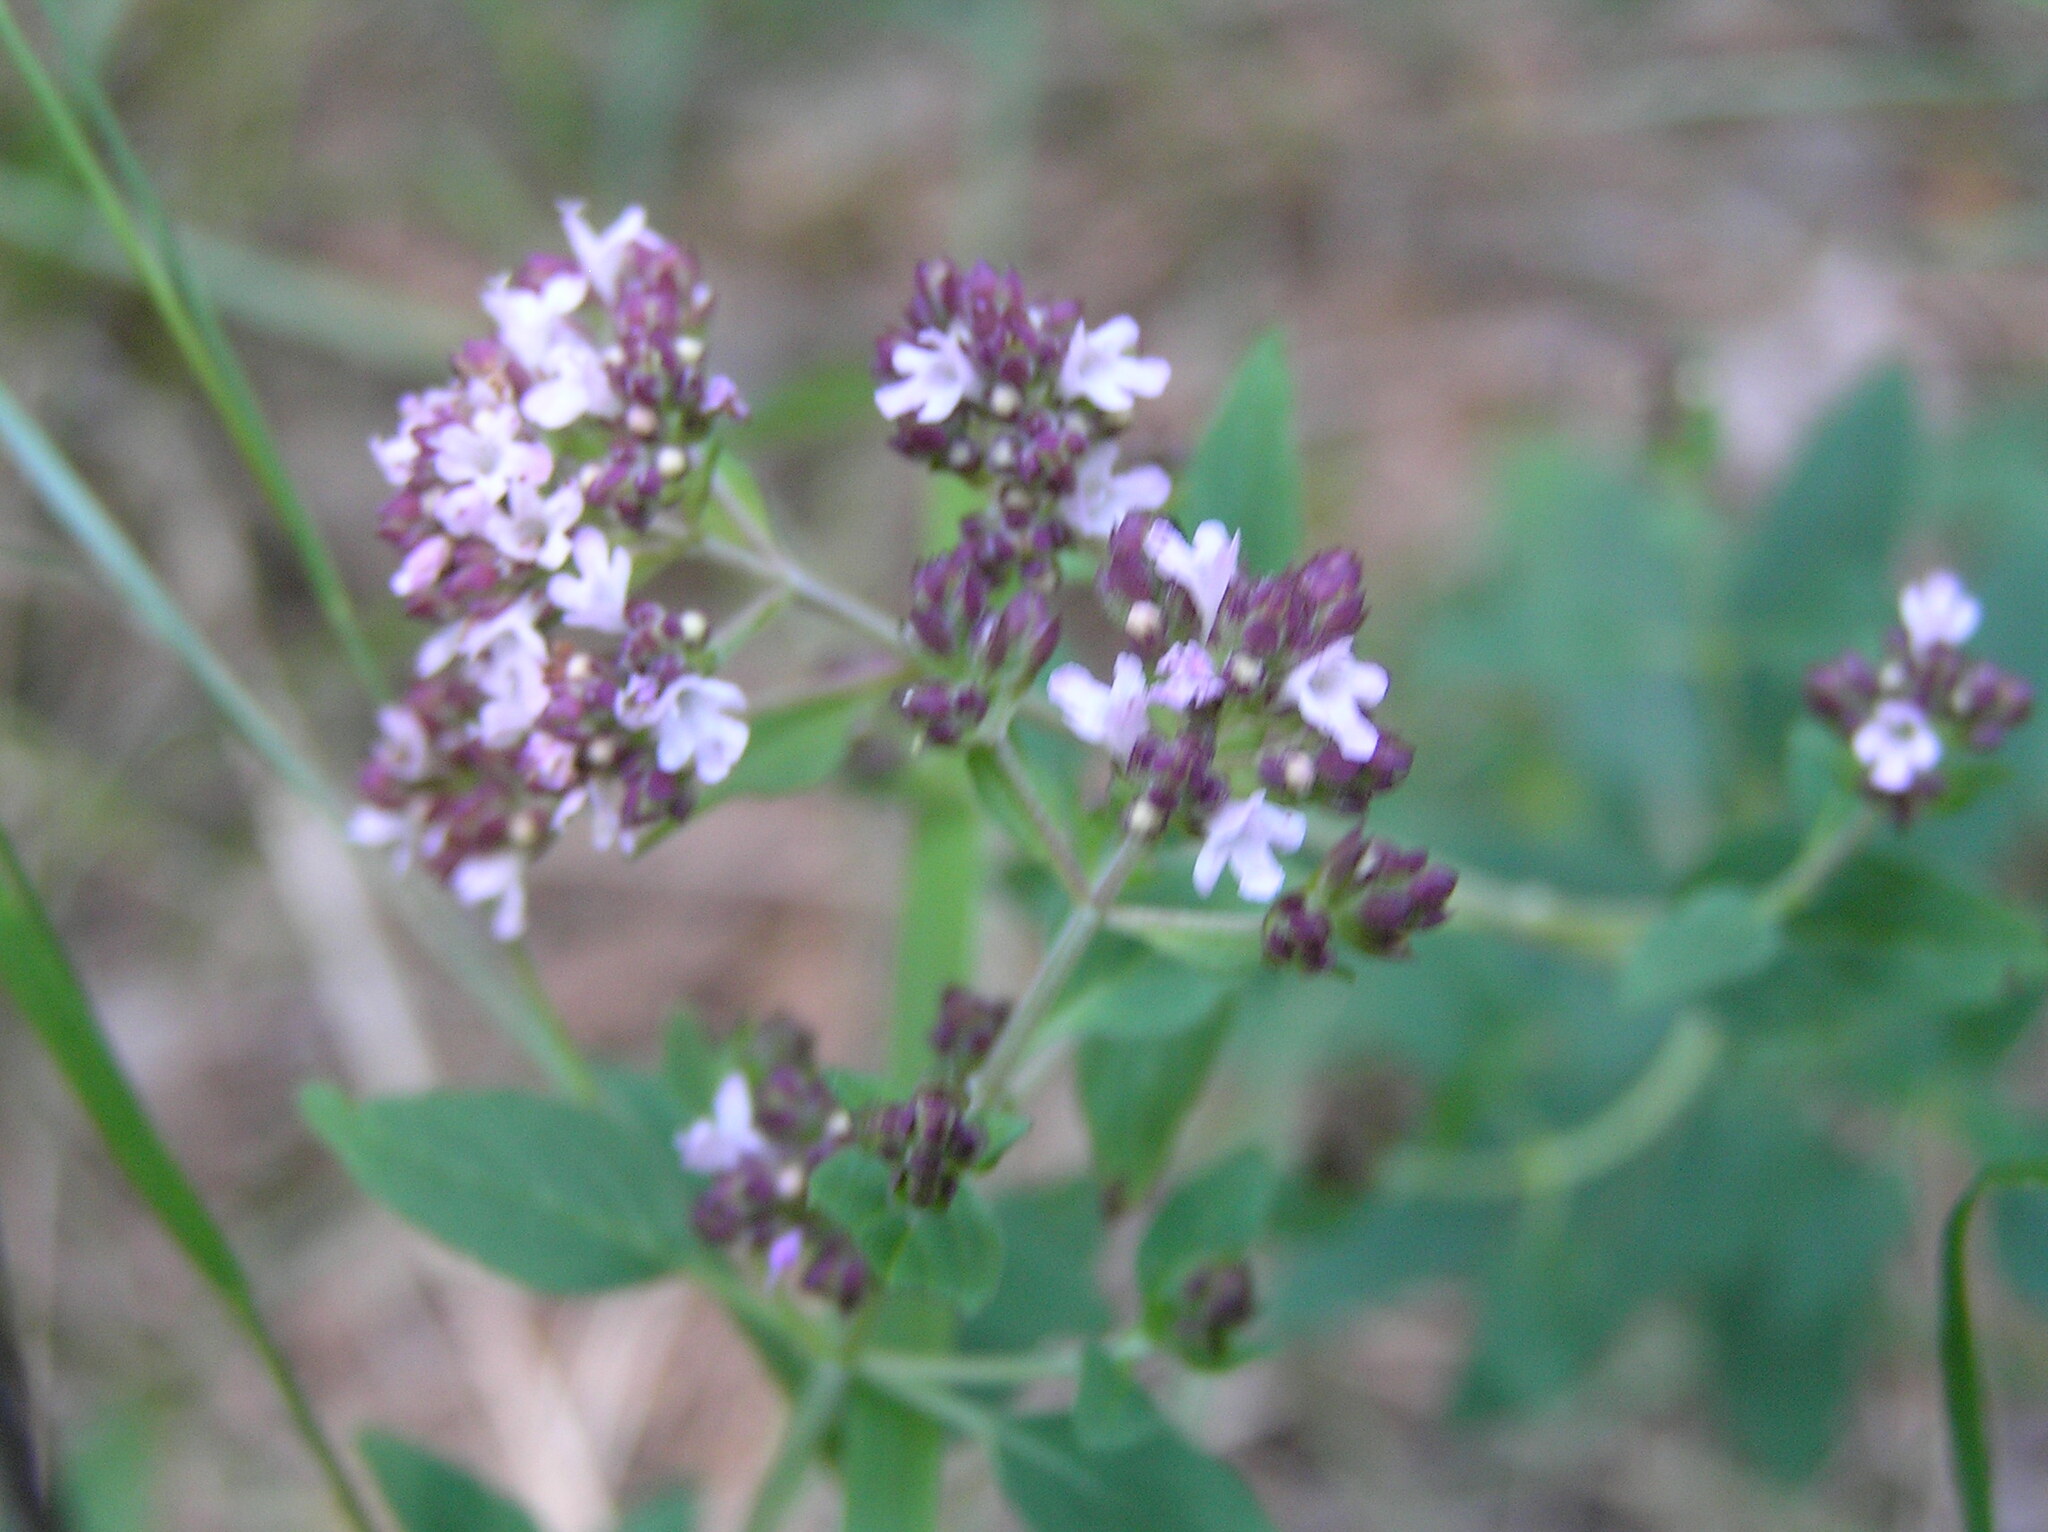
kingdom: Plantae
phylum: Tracheophyta
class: Magnoliopsida
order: Lamiales
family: Lamiaceae
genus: Origanum
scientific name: Origanum vulgare
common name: Wild marjoram
